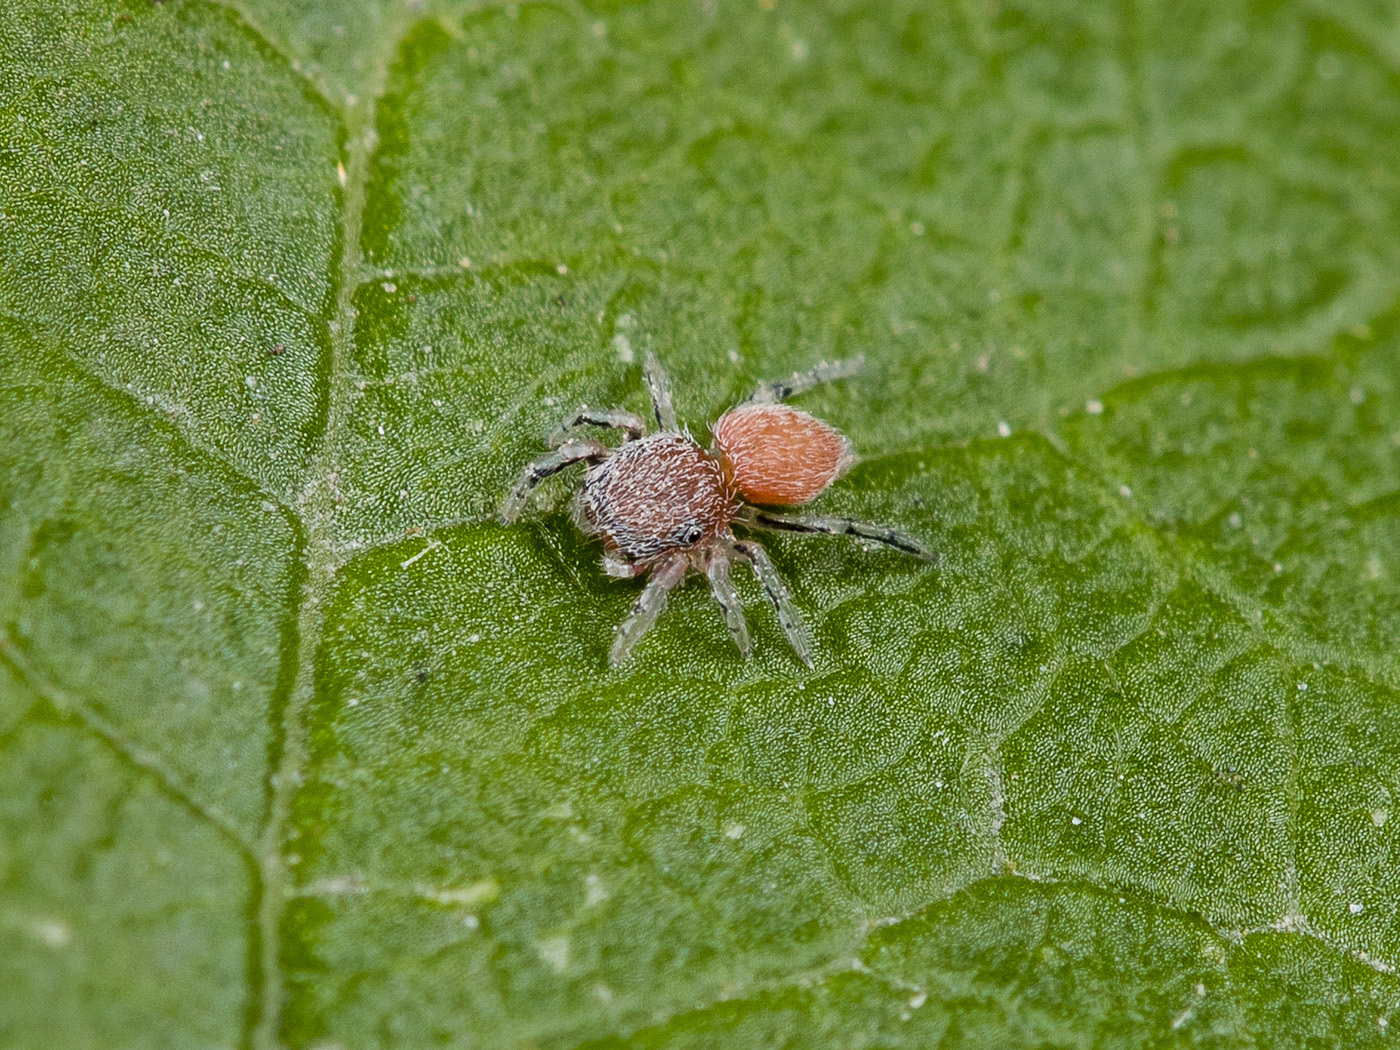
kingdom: Animalia
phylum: Arthropoda
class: Arachnida
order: Araneae
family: Salticidae
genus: Ballus
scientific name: Ballus chalybeius
